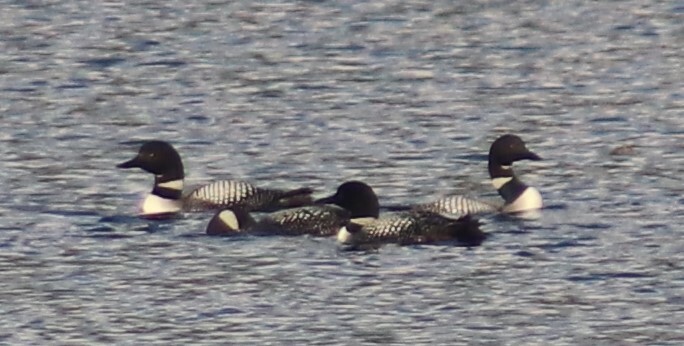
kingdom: Animalia
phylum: Chordata
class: Aves
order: Gaviiformes
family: Gaviidae
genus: Gavia
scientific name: Gavia immer
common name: Common loon
